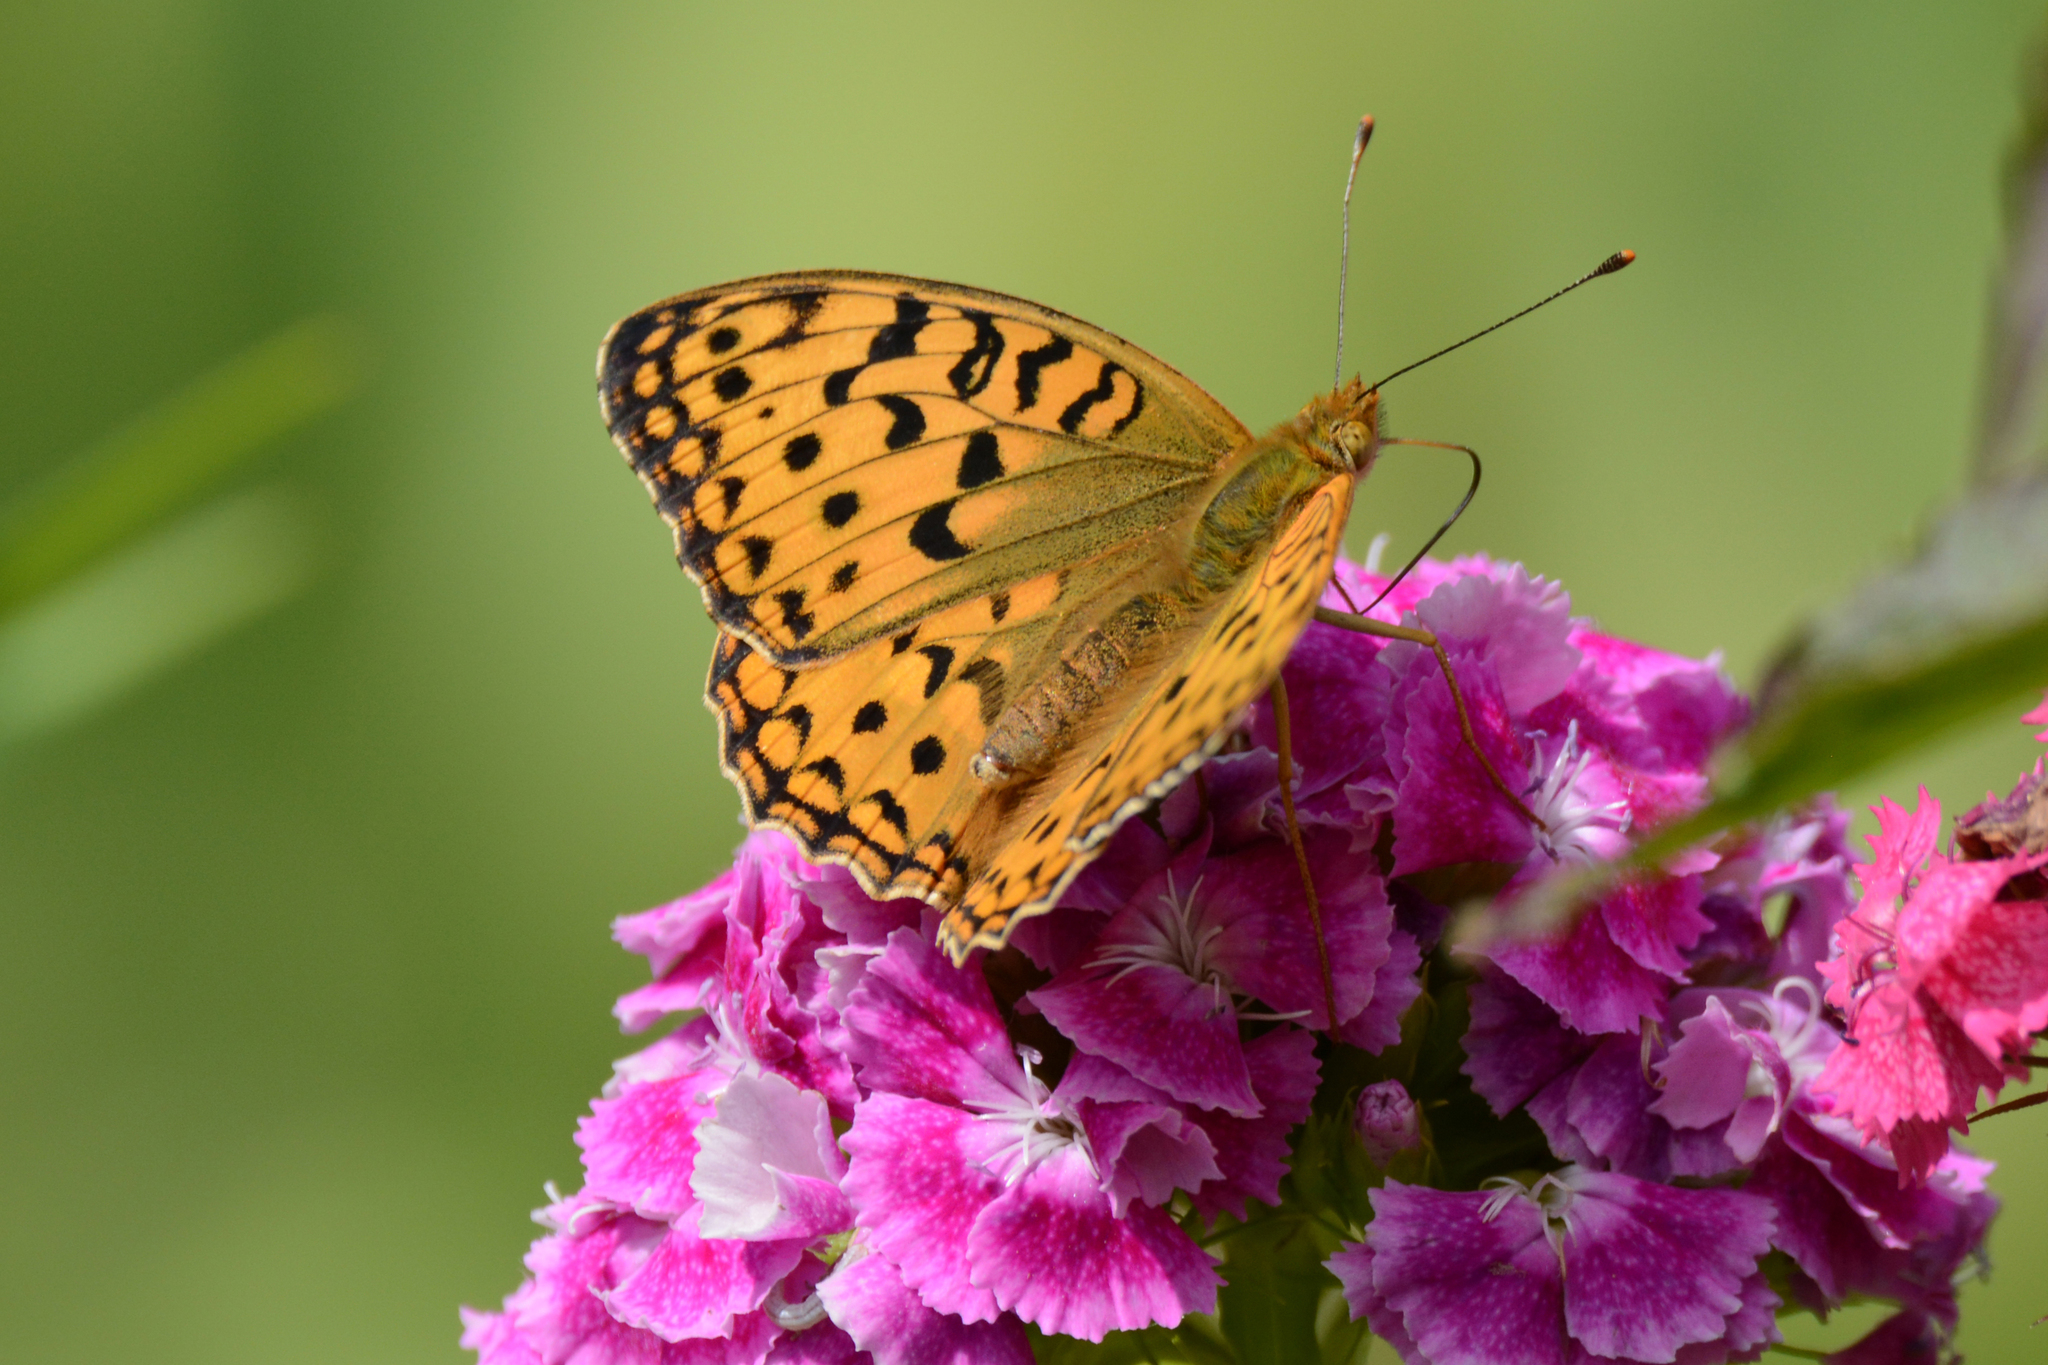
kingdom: Animalia
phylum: Arthropoda
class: Insecta
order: Lepidoptera
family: Nymphalidae
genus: Fabriciana
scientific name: Fabriciana adippe
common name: High brown fritillary
